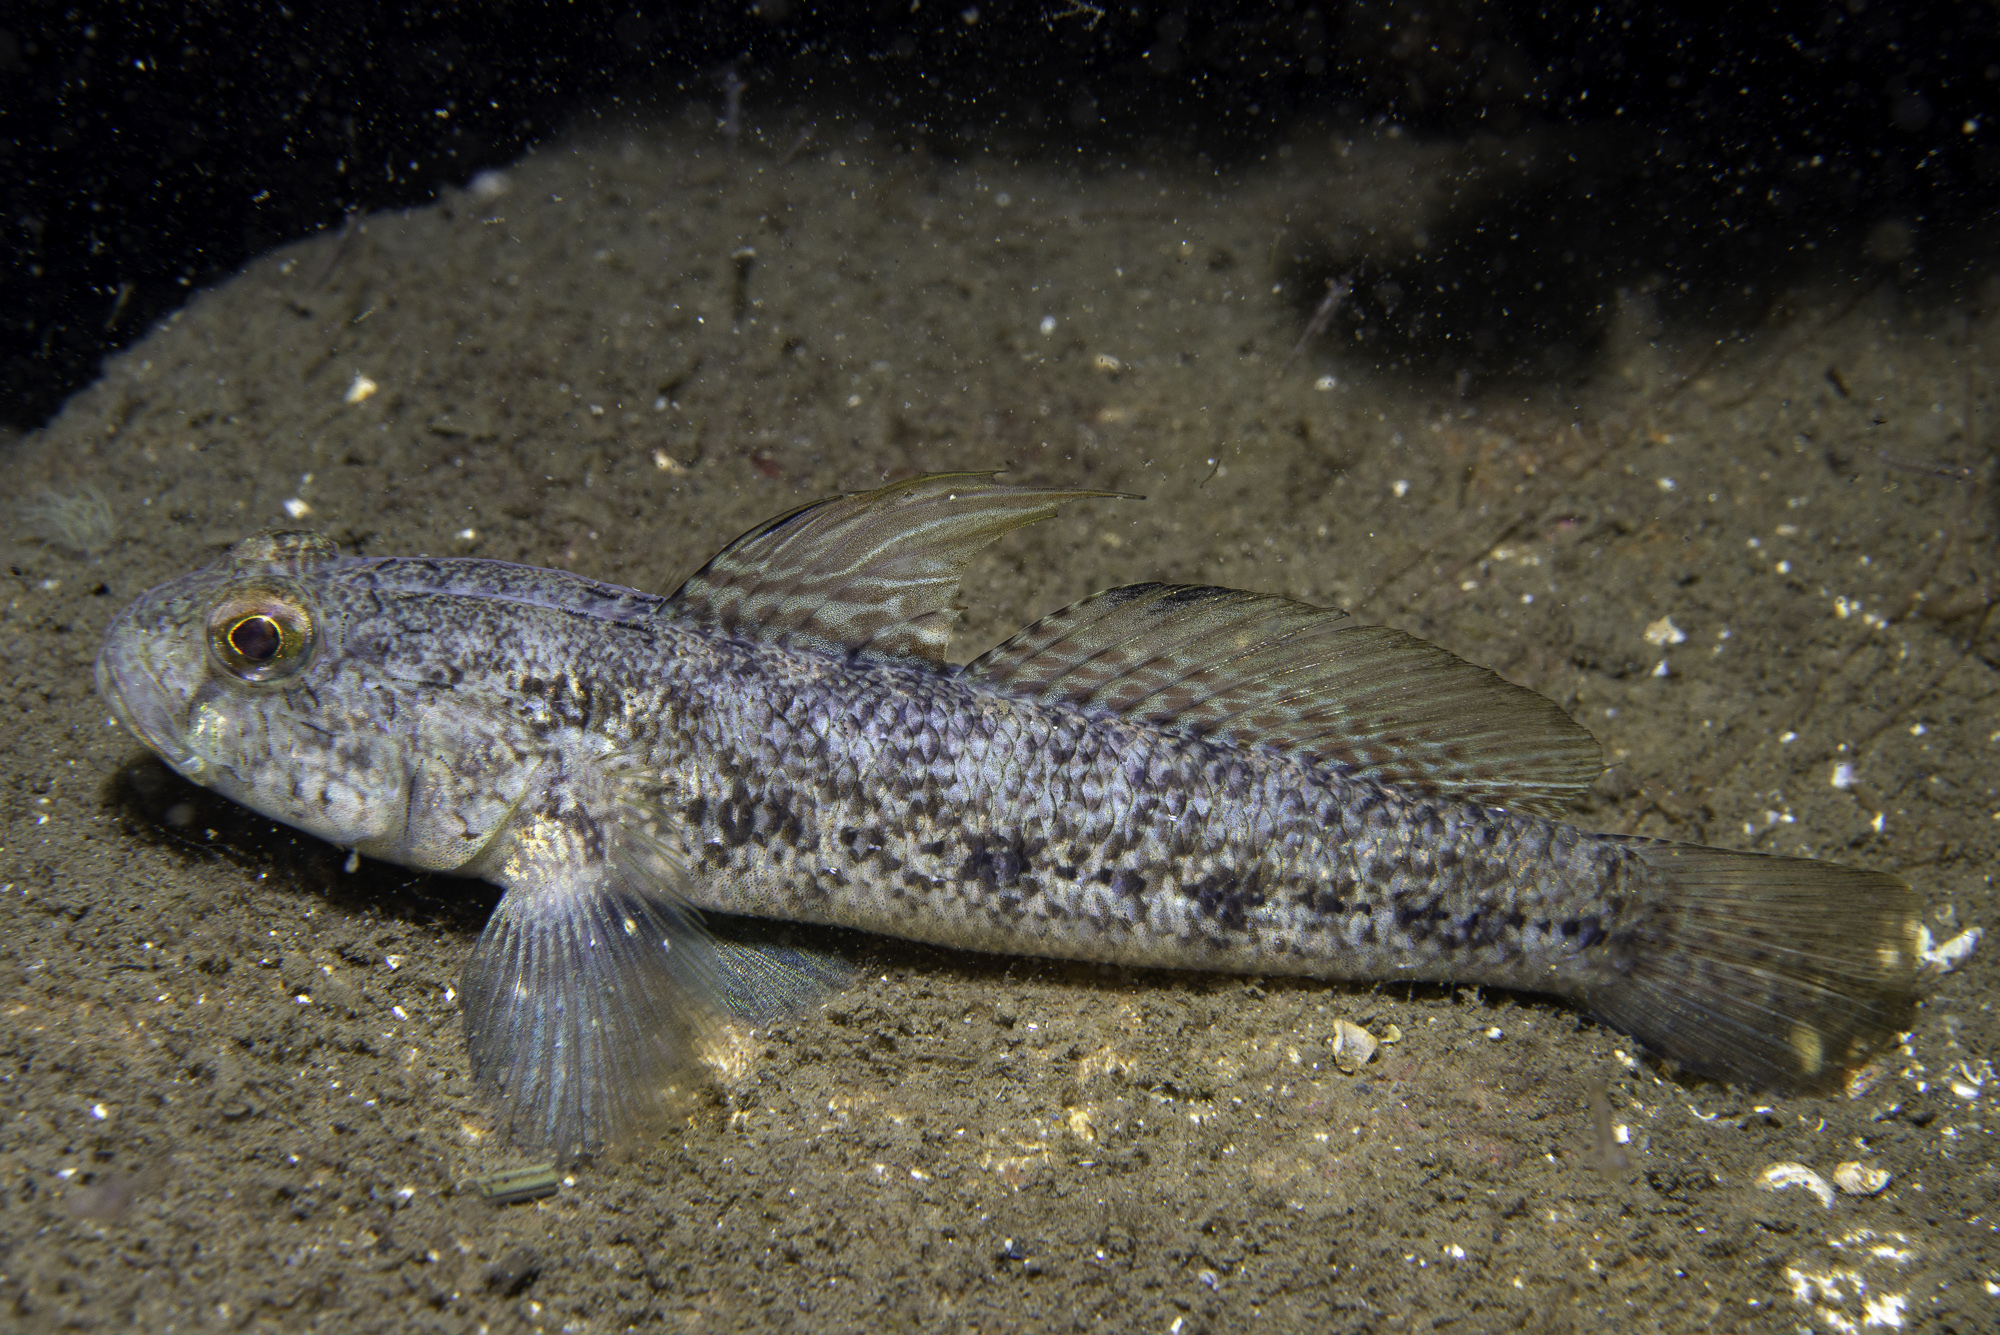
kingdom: Animalia
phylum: Chordata
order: Perciformes
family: Gobiidae
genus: Gobius
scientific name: Gobius niger
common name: Black goby
